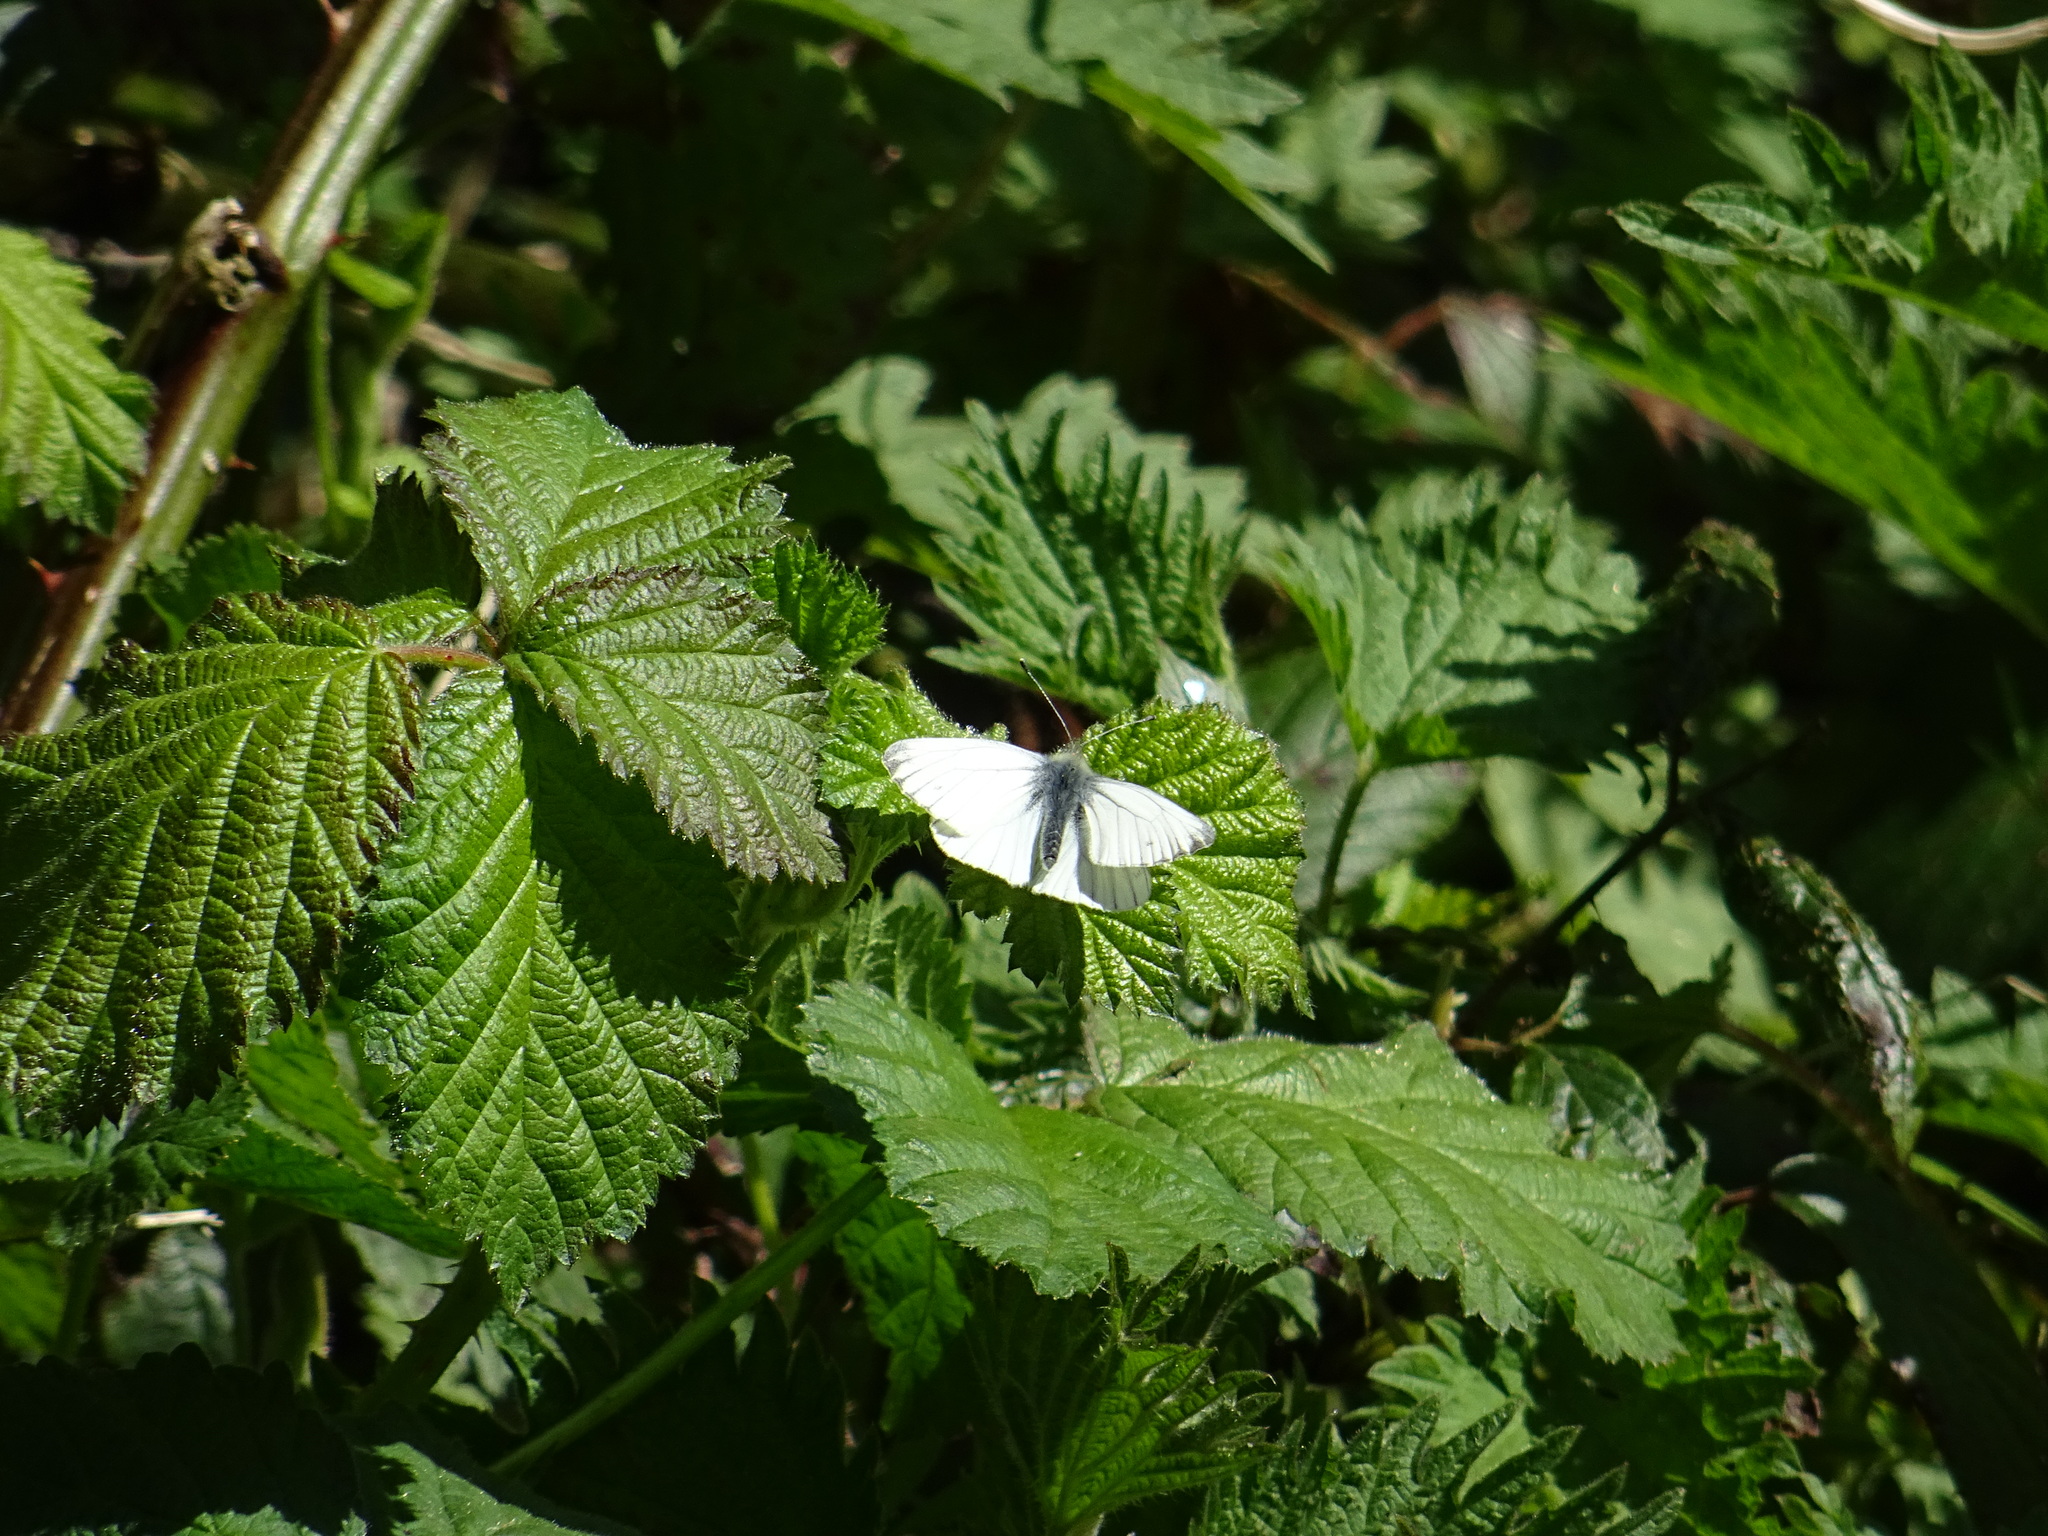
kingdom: Animalia
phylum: Arthropoda
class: Insecta
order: Lepidoptera
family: Pieridae
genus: Pieris
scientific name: Pieris napi
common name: Green-veined white
